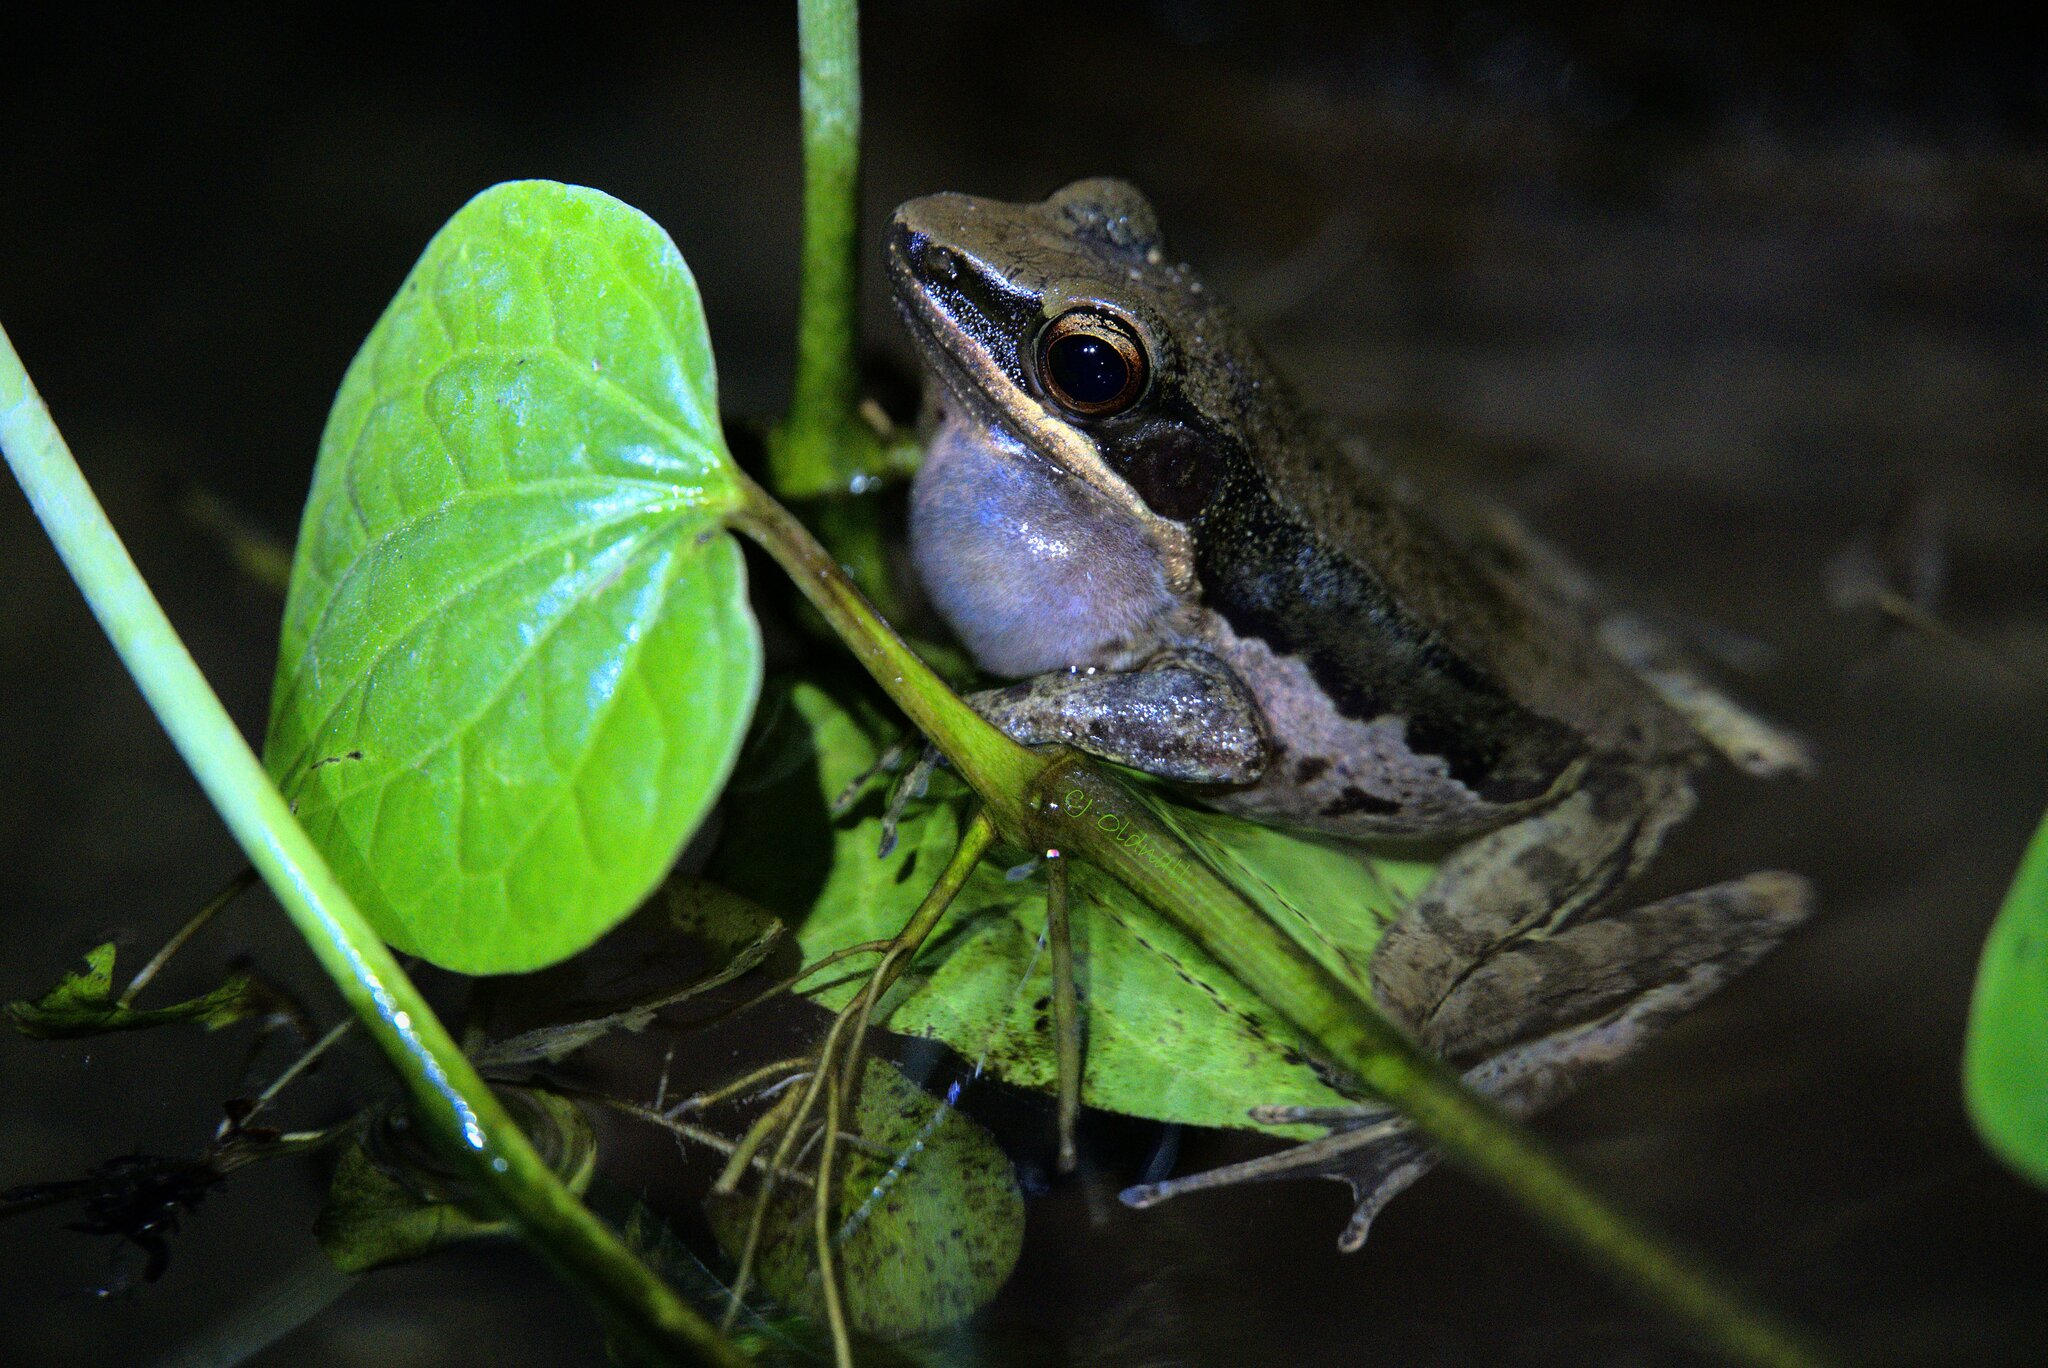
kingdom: Animalia
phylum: Chordata
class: Amphibia
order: Anura
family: Ranidae
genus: Sylvirana
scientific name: Sylvirana malayana
